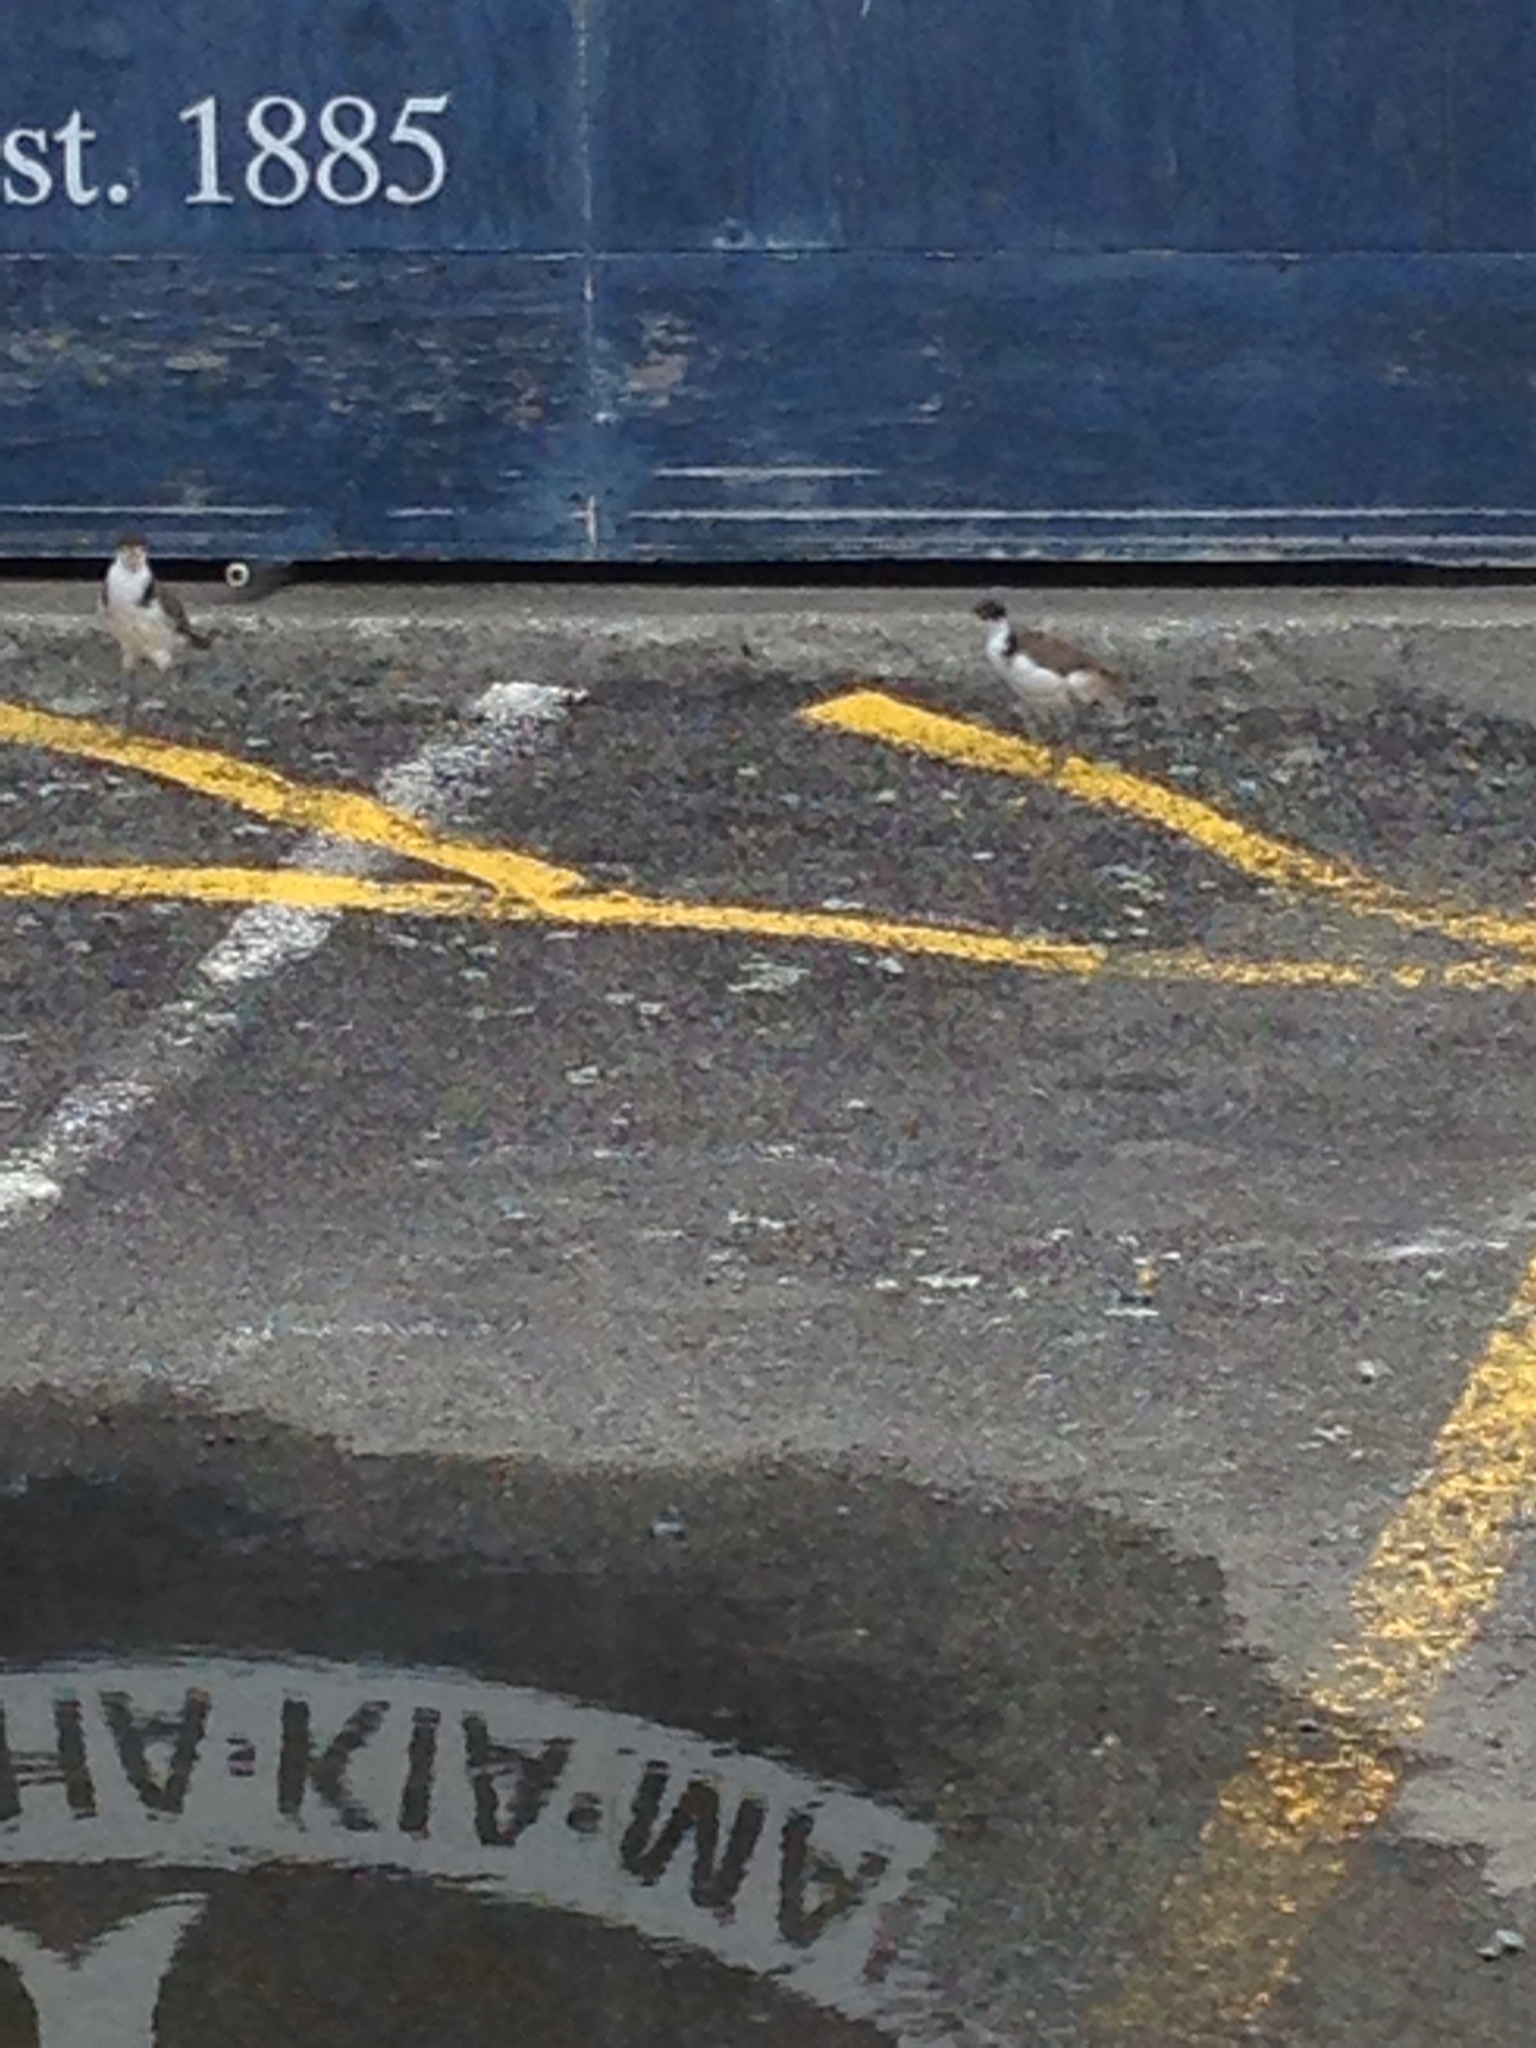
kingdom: Animalia
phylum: Chordata
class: Aves
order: Charadriiformes
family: Charadriidae
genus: Vanellus
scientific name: Vanellus miles
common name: Masked lapwing
